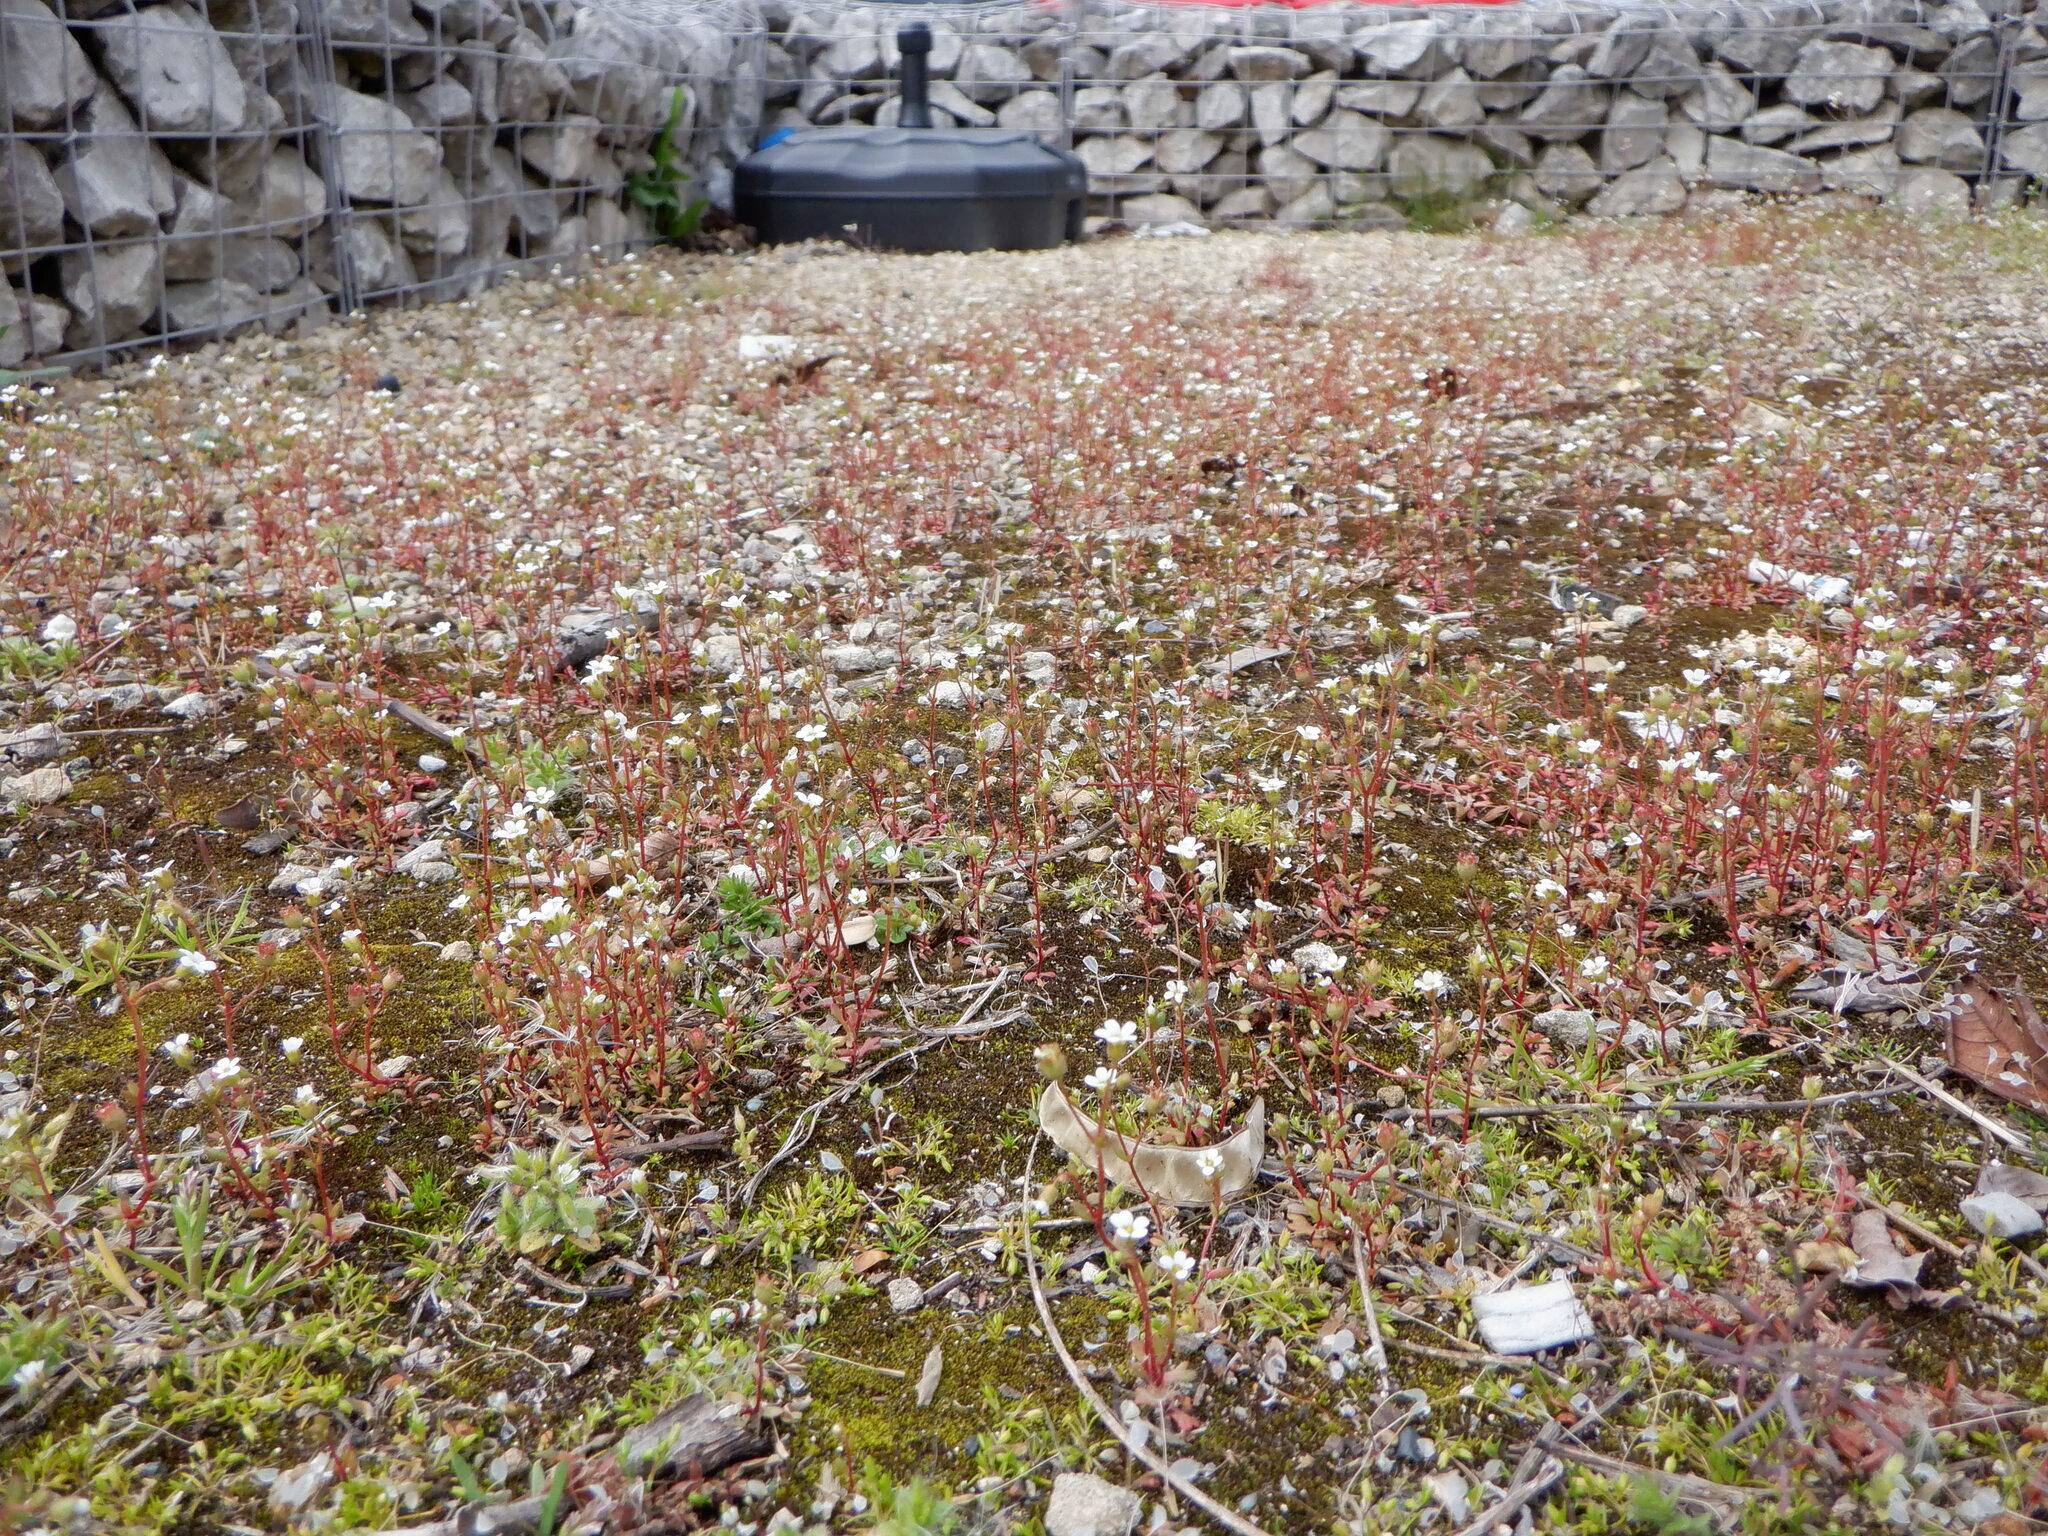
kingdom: Plantae
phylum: Tracheophyta
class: Magnoliopsida
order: Saxifragales
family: Saxifragaceae
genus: Saxifraga
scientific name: Saxifraga tridactylites
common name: Rue-leaved saxifrage
